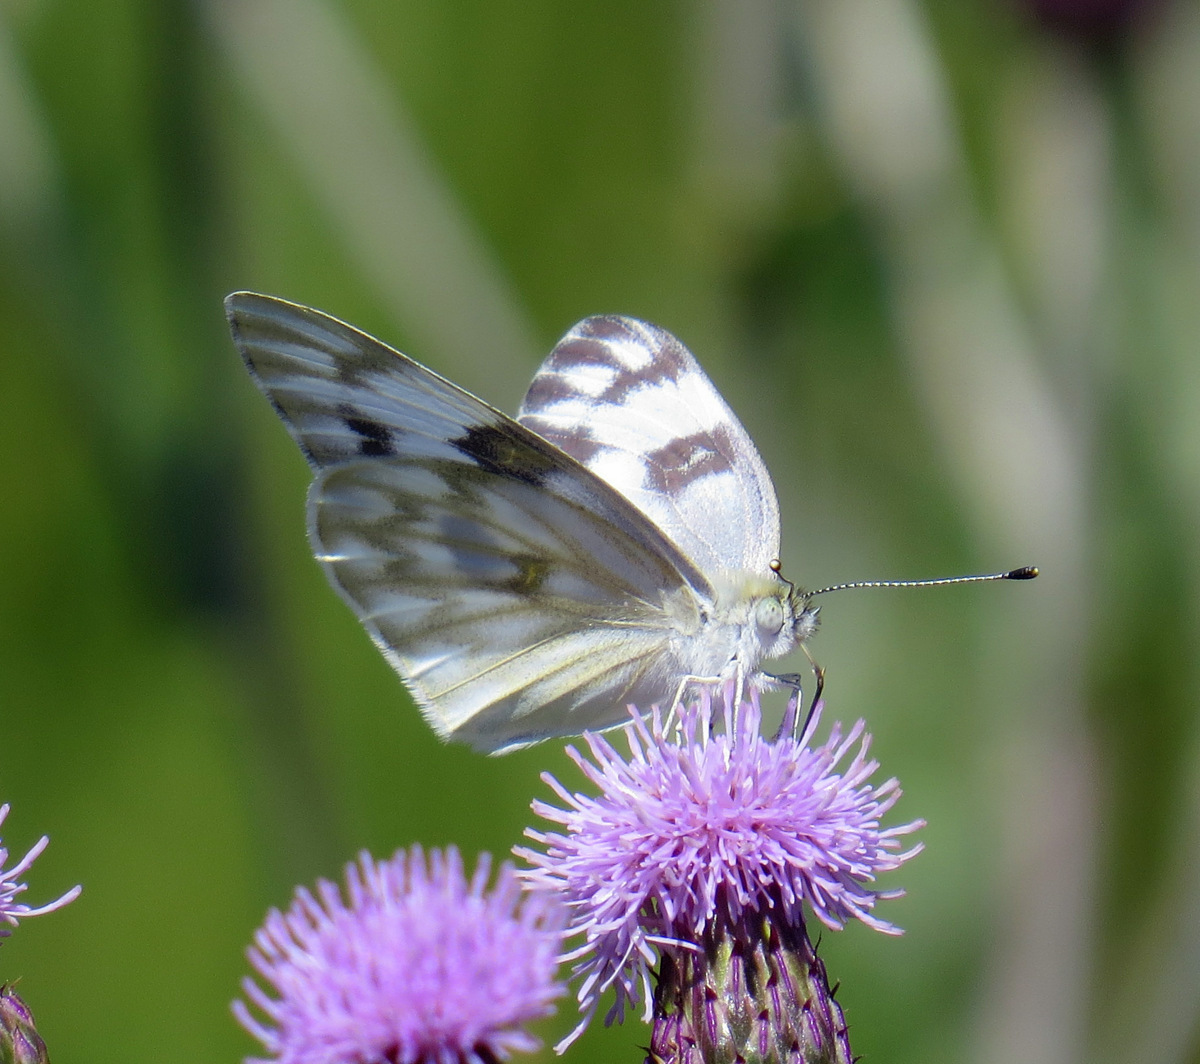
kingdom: Animalia
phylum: Arthropoda
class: Insecta
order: Lepidoptera
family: Pieridae
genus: Pontia
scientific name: Pontia protodice
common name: Checkered white
